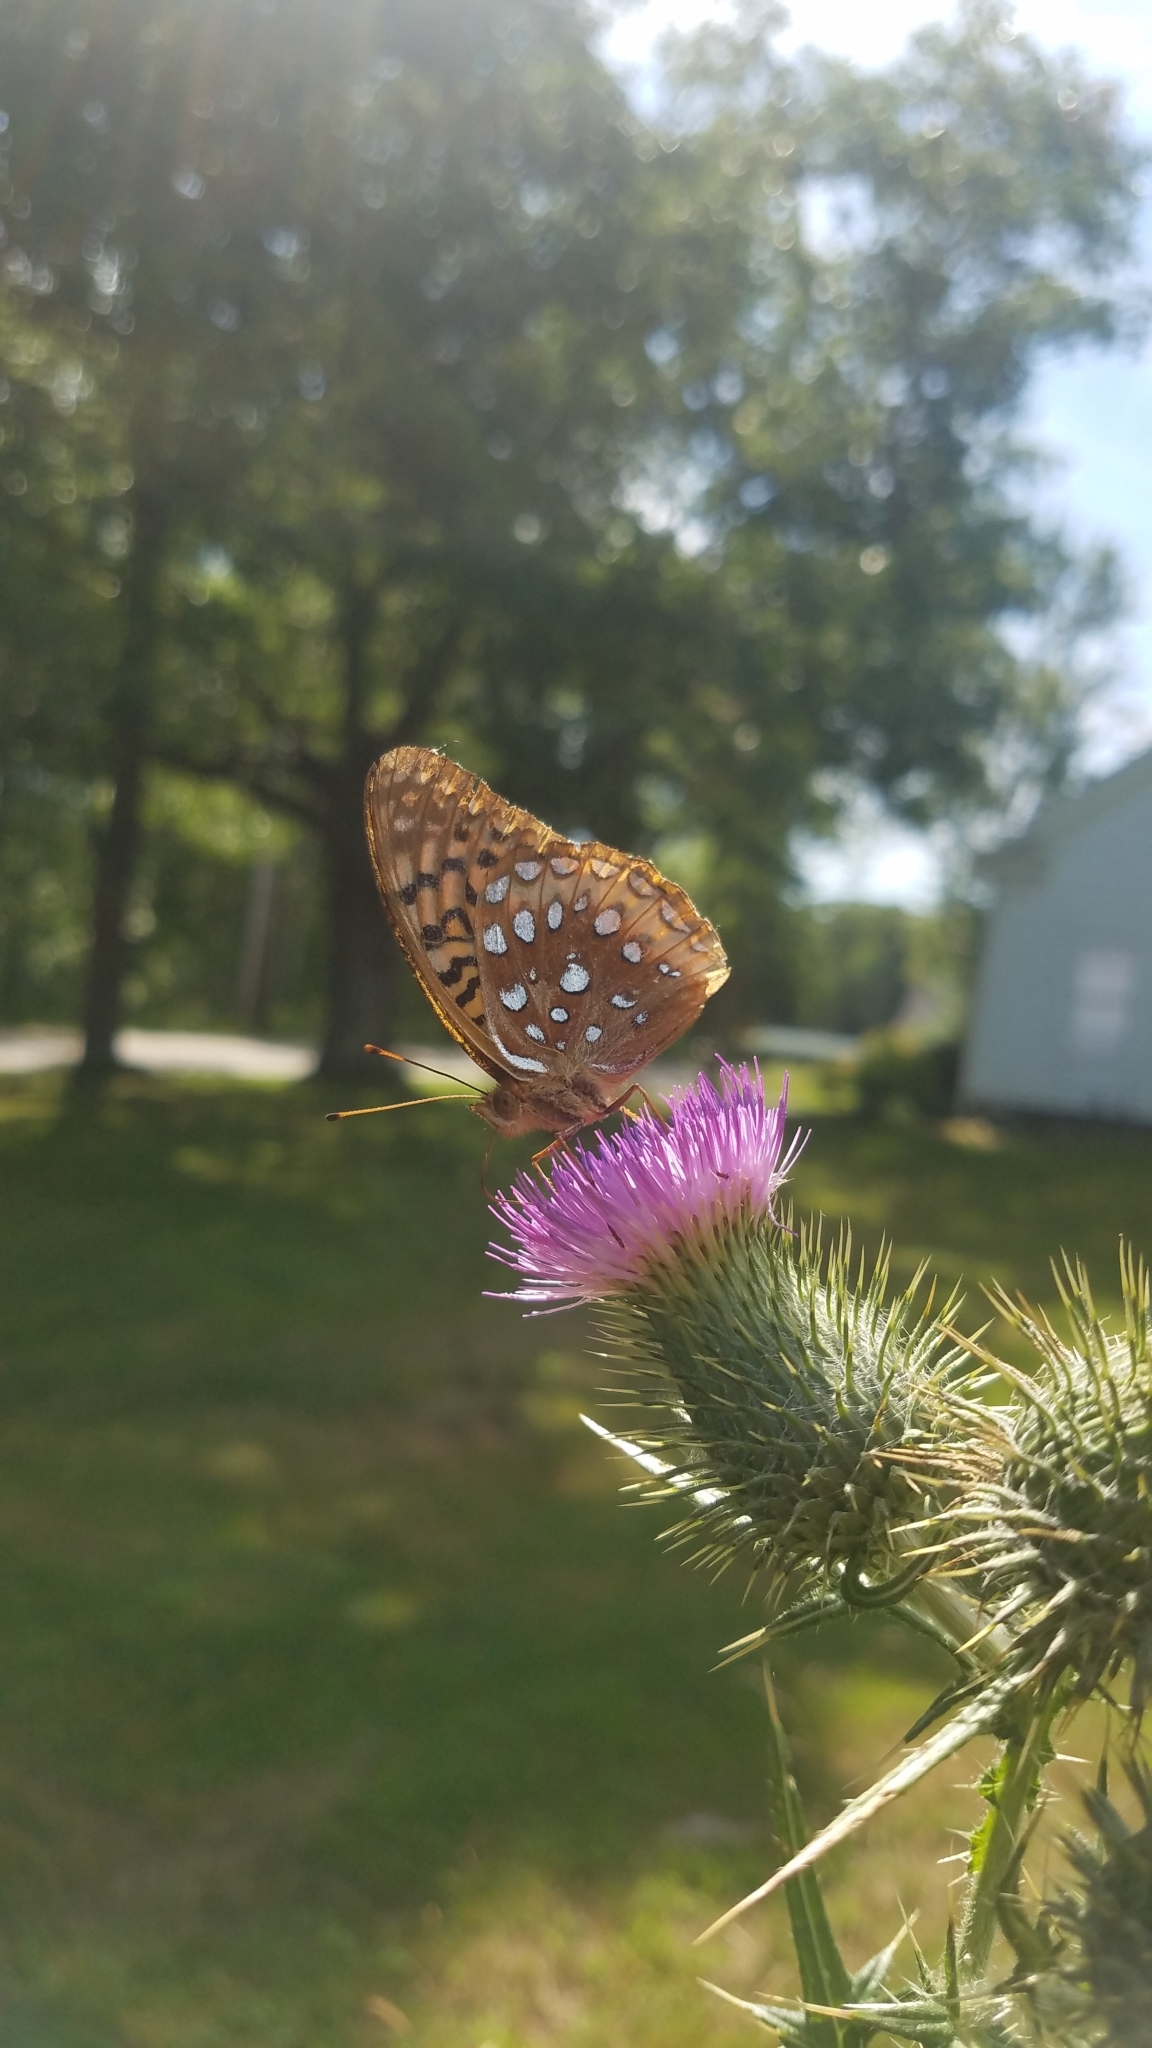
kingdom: Animalia
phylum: Arthropoda
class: Insecta
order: Lepidoptera
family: Nymphalidae
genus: Speyeria
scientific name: Speyeria cybele
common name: Great spangled fritillary
